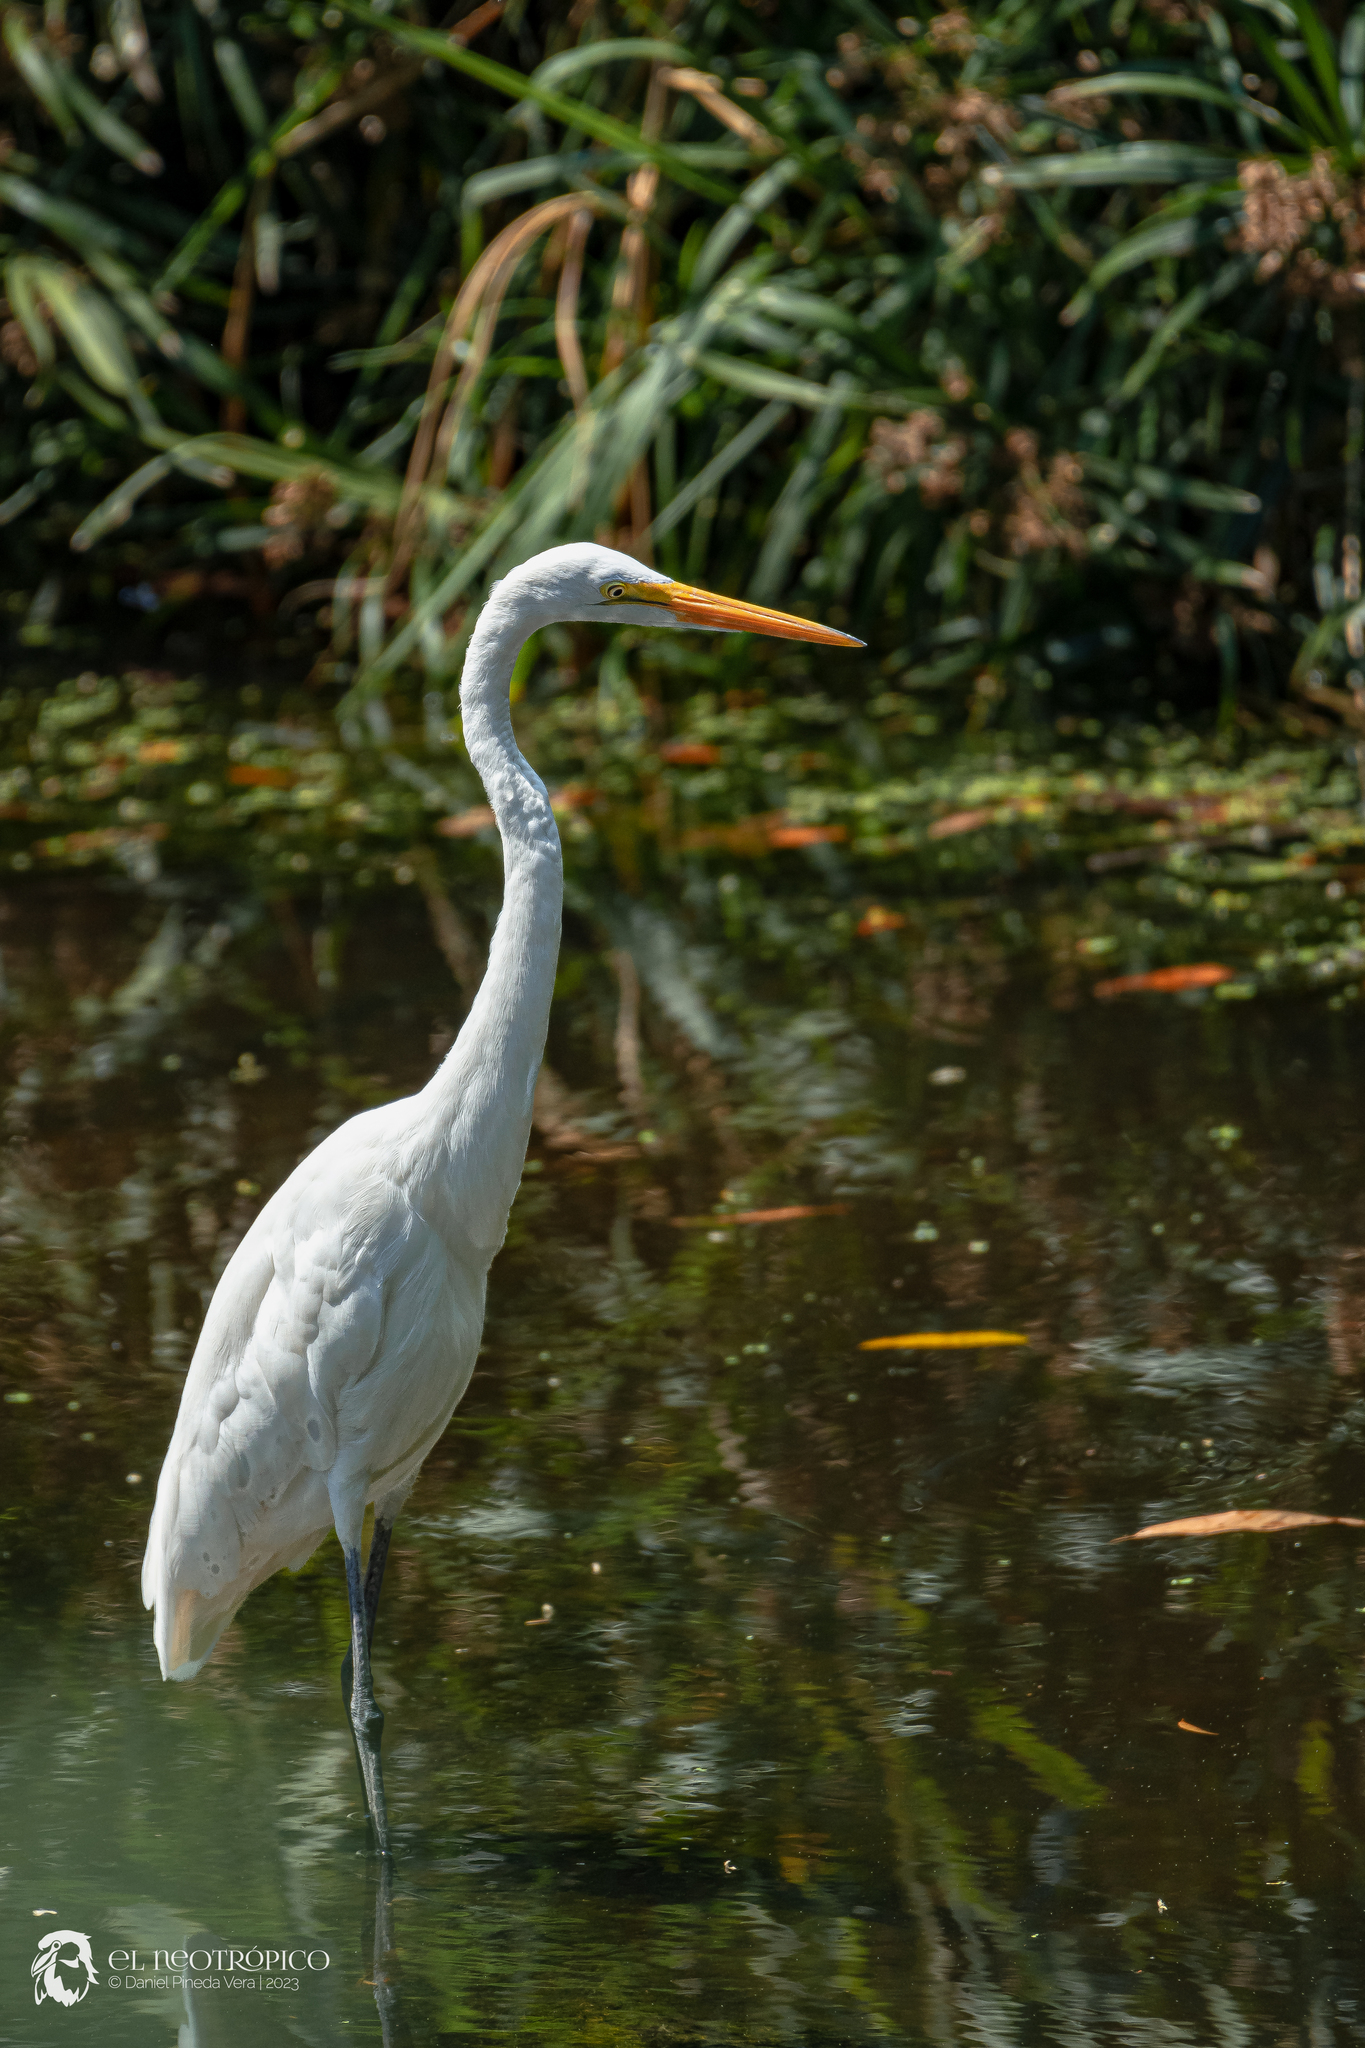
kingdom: Animalia
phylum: Chordata
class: Aves
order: Pelecaniformes
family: Ardeidae
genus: Ardea
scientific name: Ardea alba
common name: Great egret
